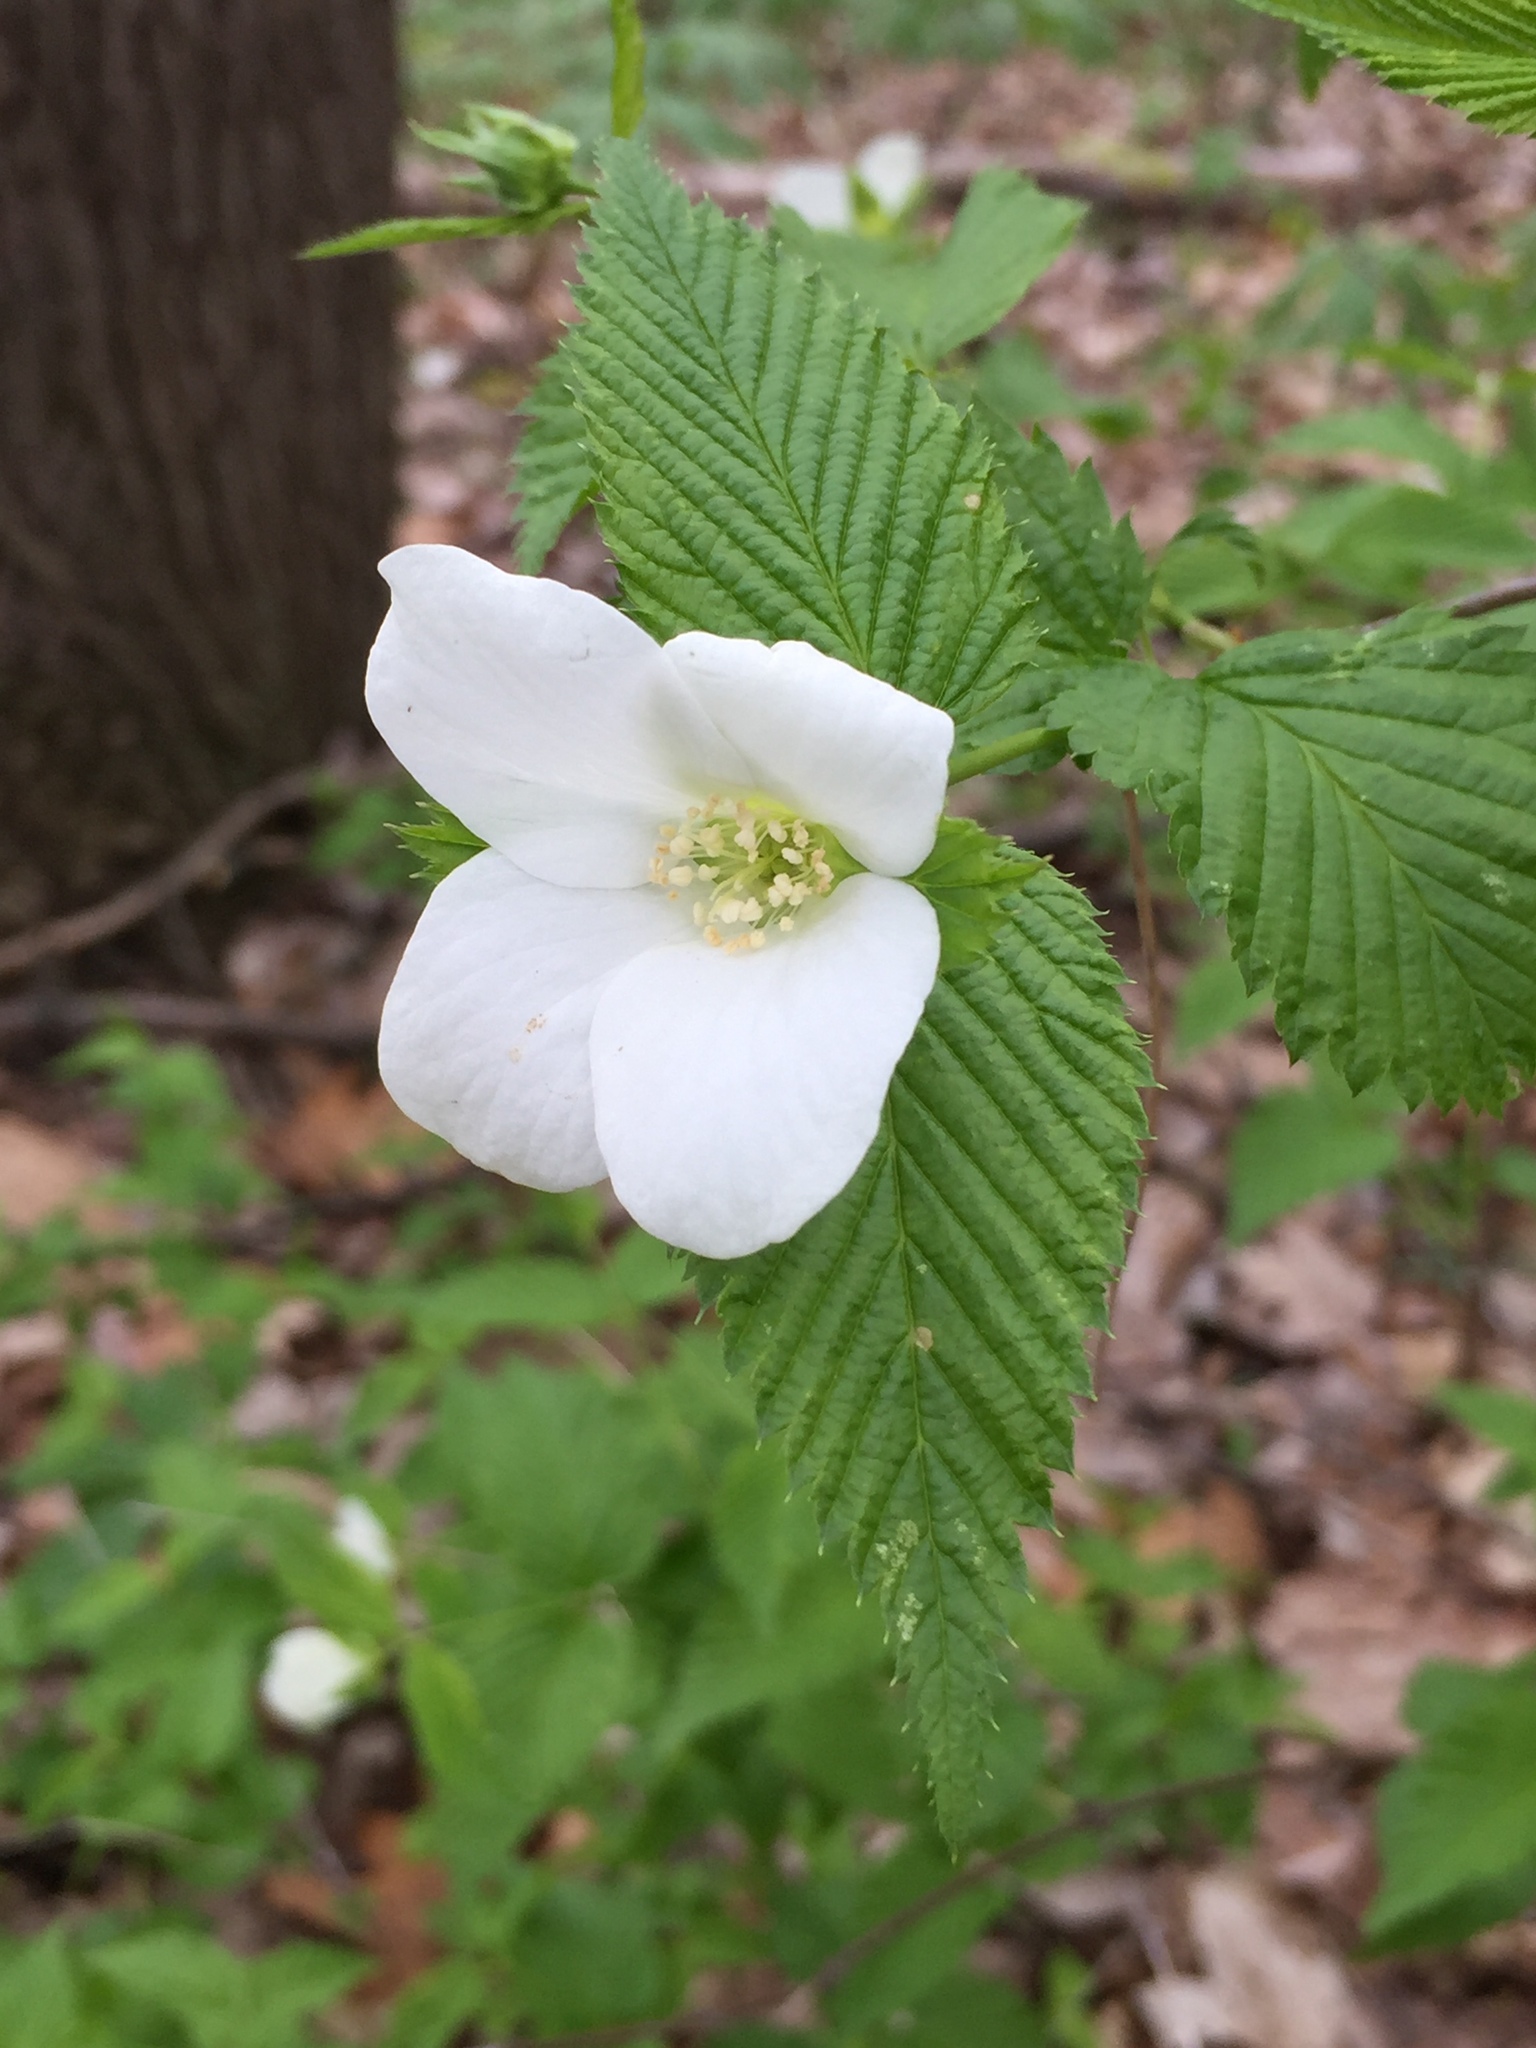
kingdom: Plantae
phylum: Tracheophyta
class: Magnoliopsida
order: Rosales
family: Rosaceae
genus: Rhodotypos
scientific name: Rhodotypos scandens
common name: Jetbead
